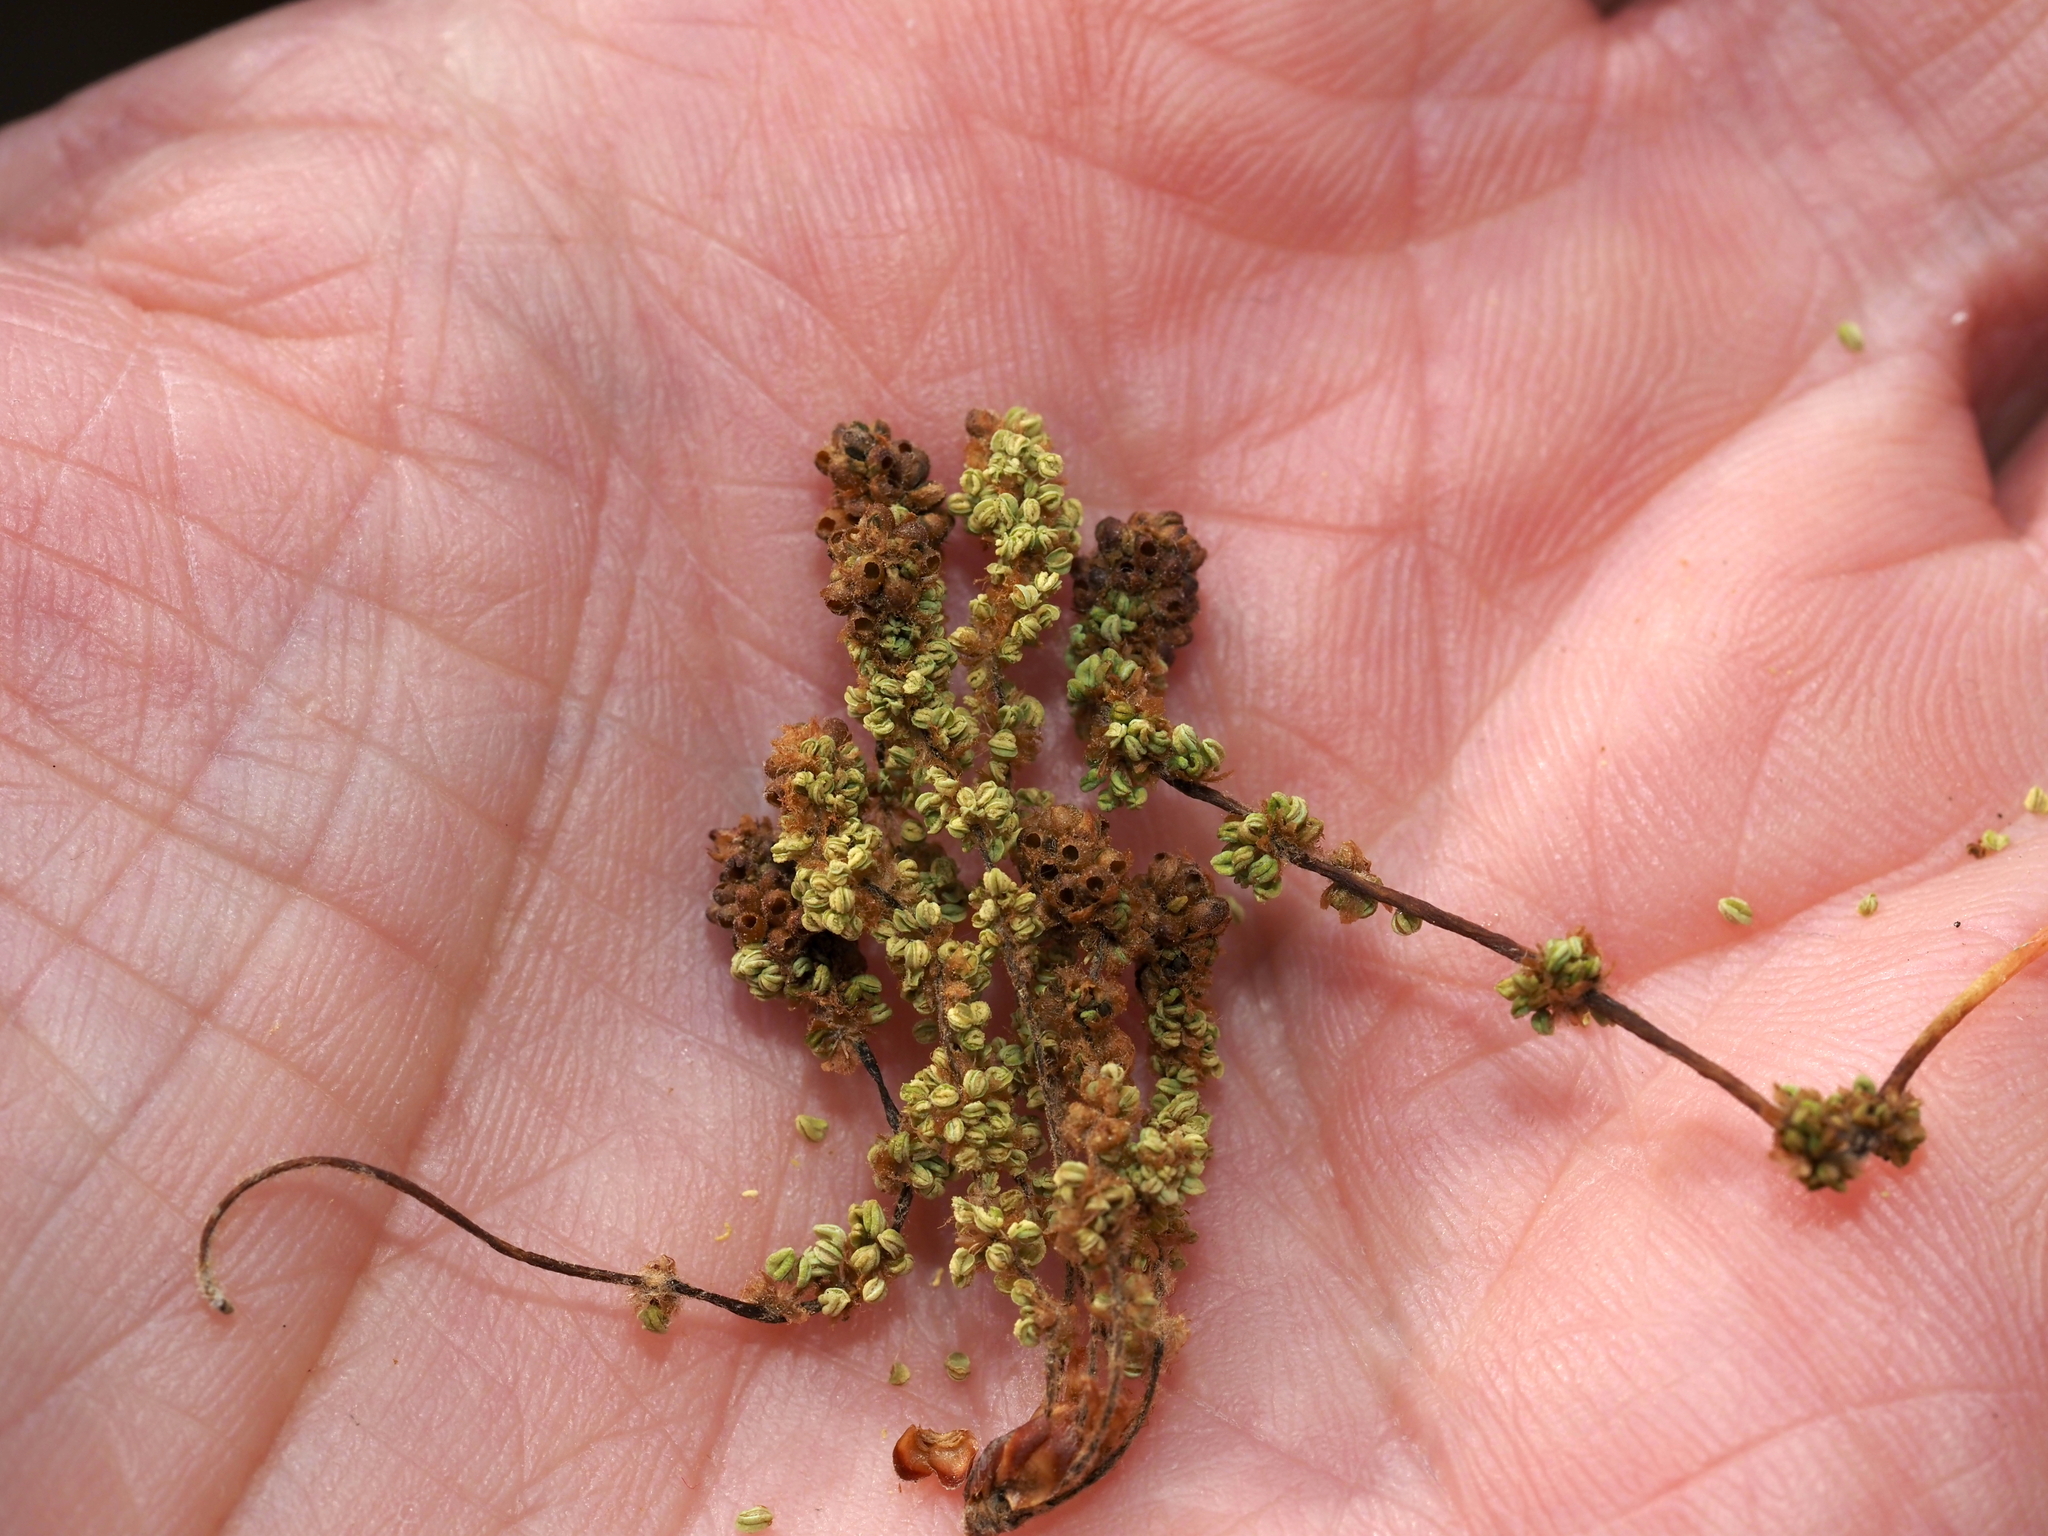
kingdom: Animalia
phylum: Arthropoda
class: Insecta
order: Hymenoptera
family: Cynipidae
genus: Callirhytis
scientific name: Callirhytis
